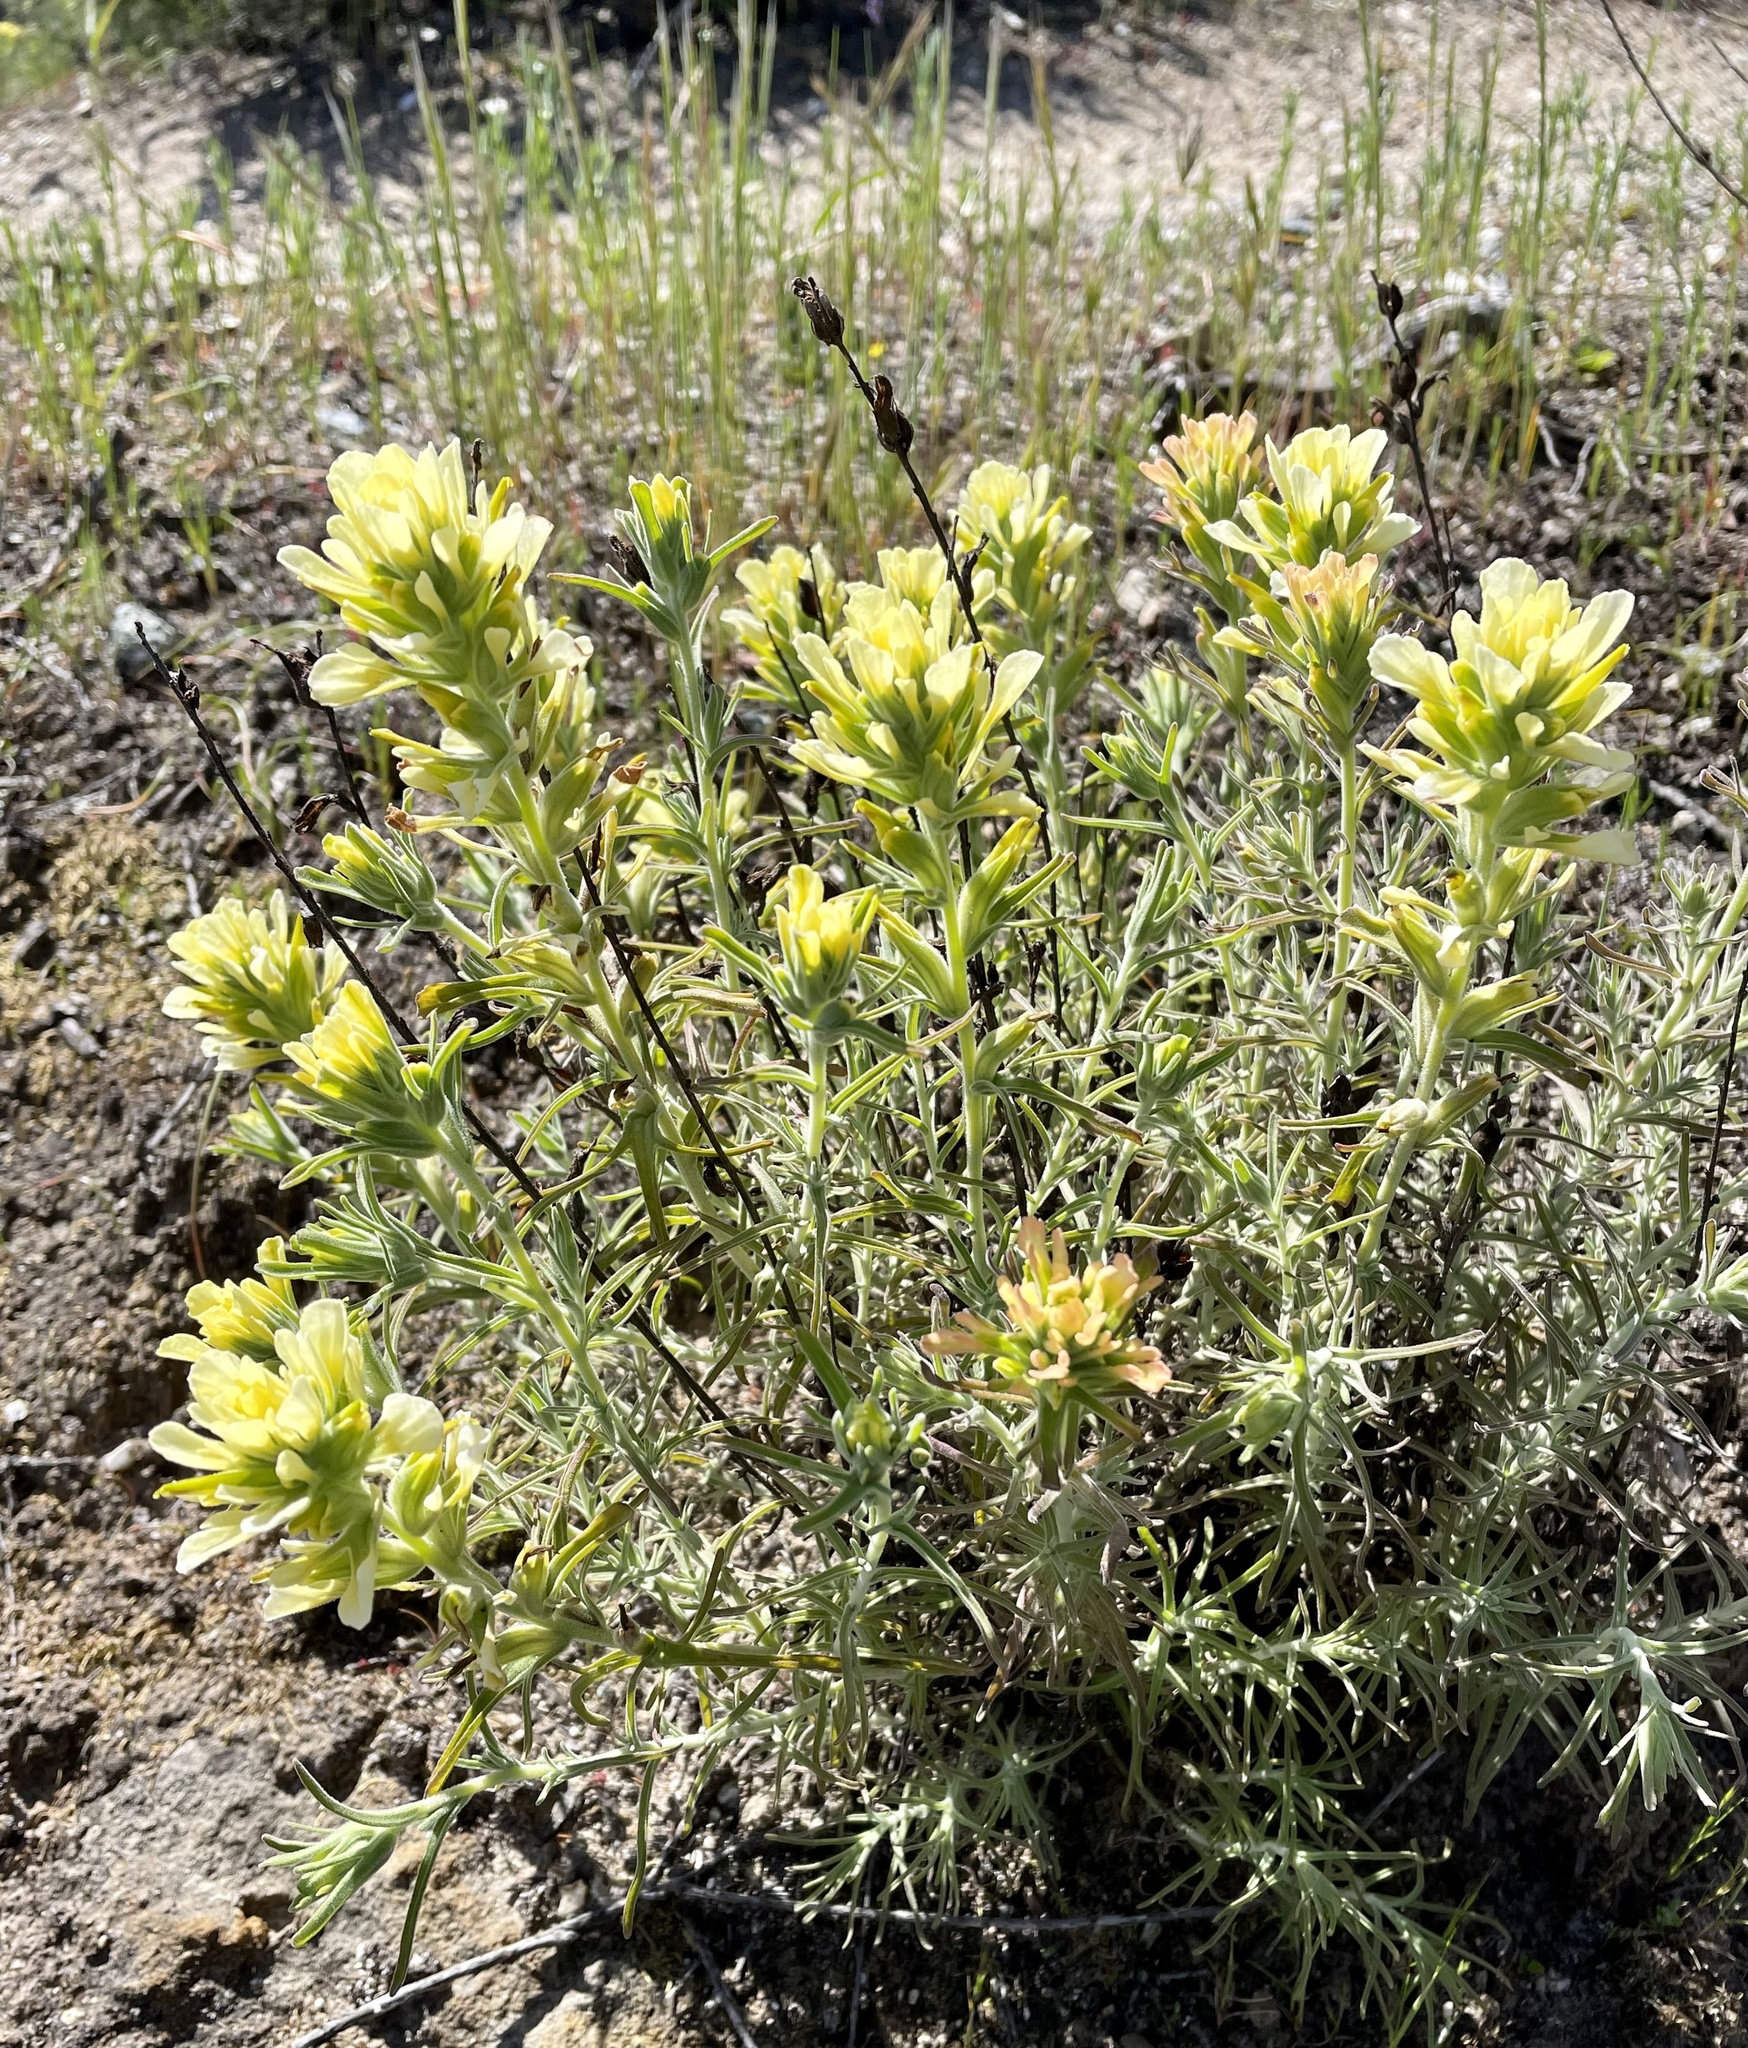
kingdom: Plantae
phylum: Tracheophyta
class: Magnoliopsida
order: Lamiales
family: Orobanchaceae
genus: Castilleja
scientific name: Castilleja foliolosa
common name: Woolly indian paintbrush
